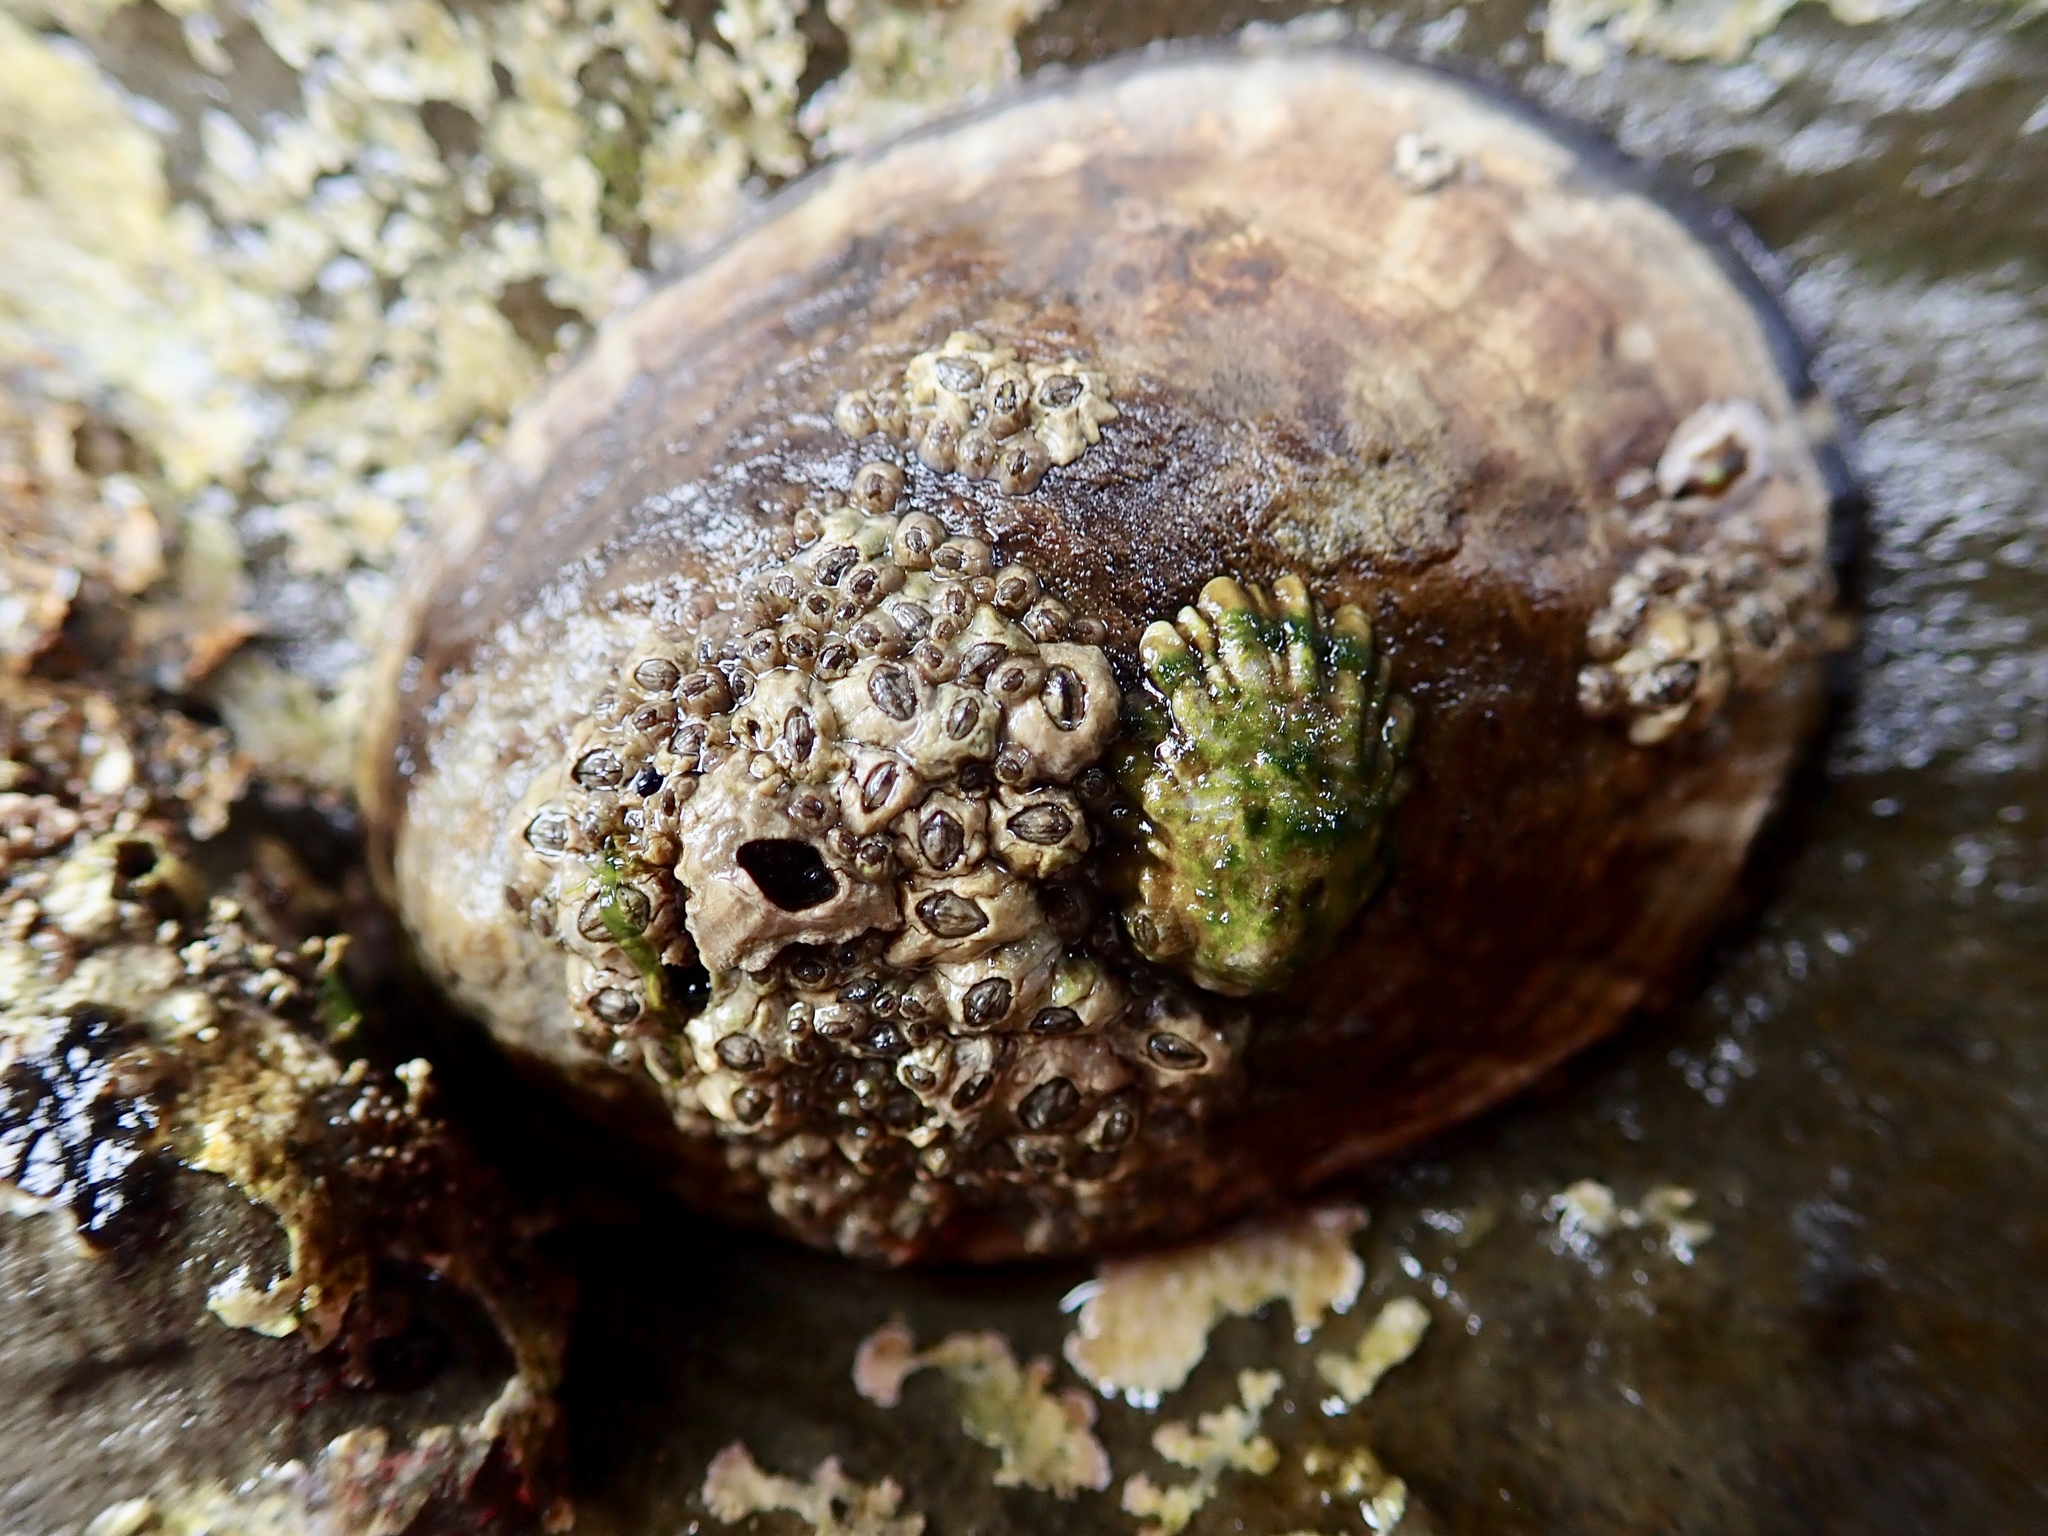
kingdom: Animalia
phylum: Mollusca
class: Gastropoda
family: Lottiidae
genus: Lottia
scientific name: Lottia gigantea
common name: Owl limpet
